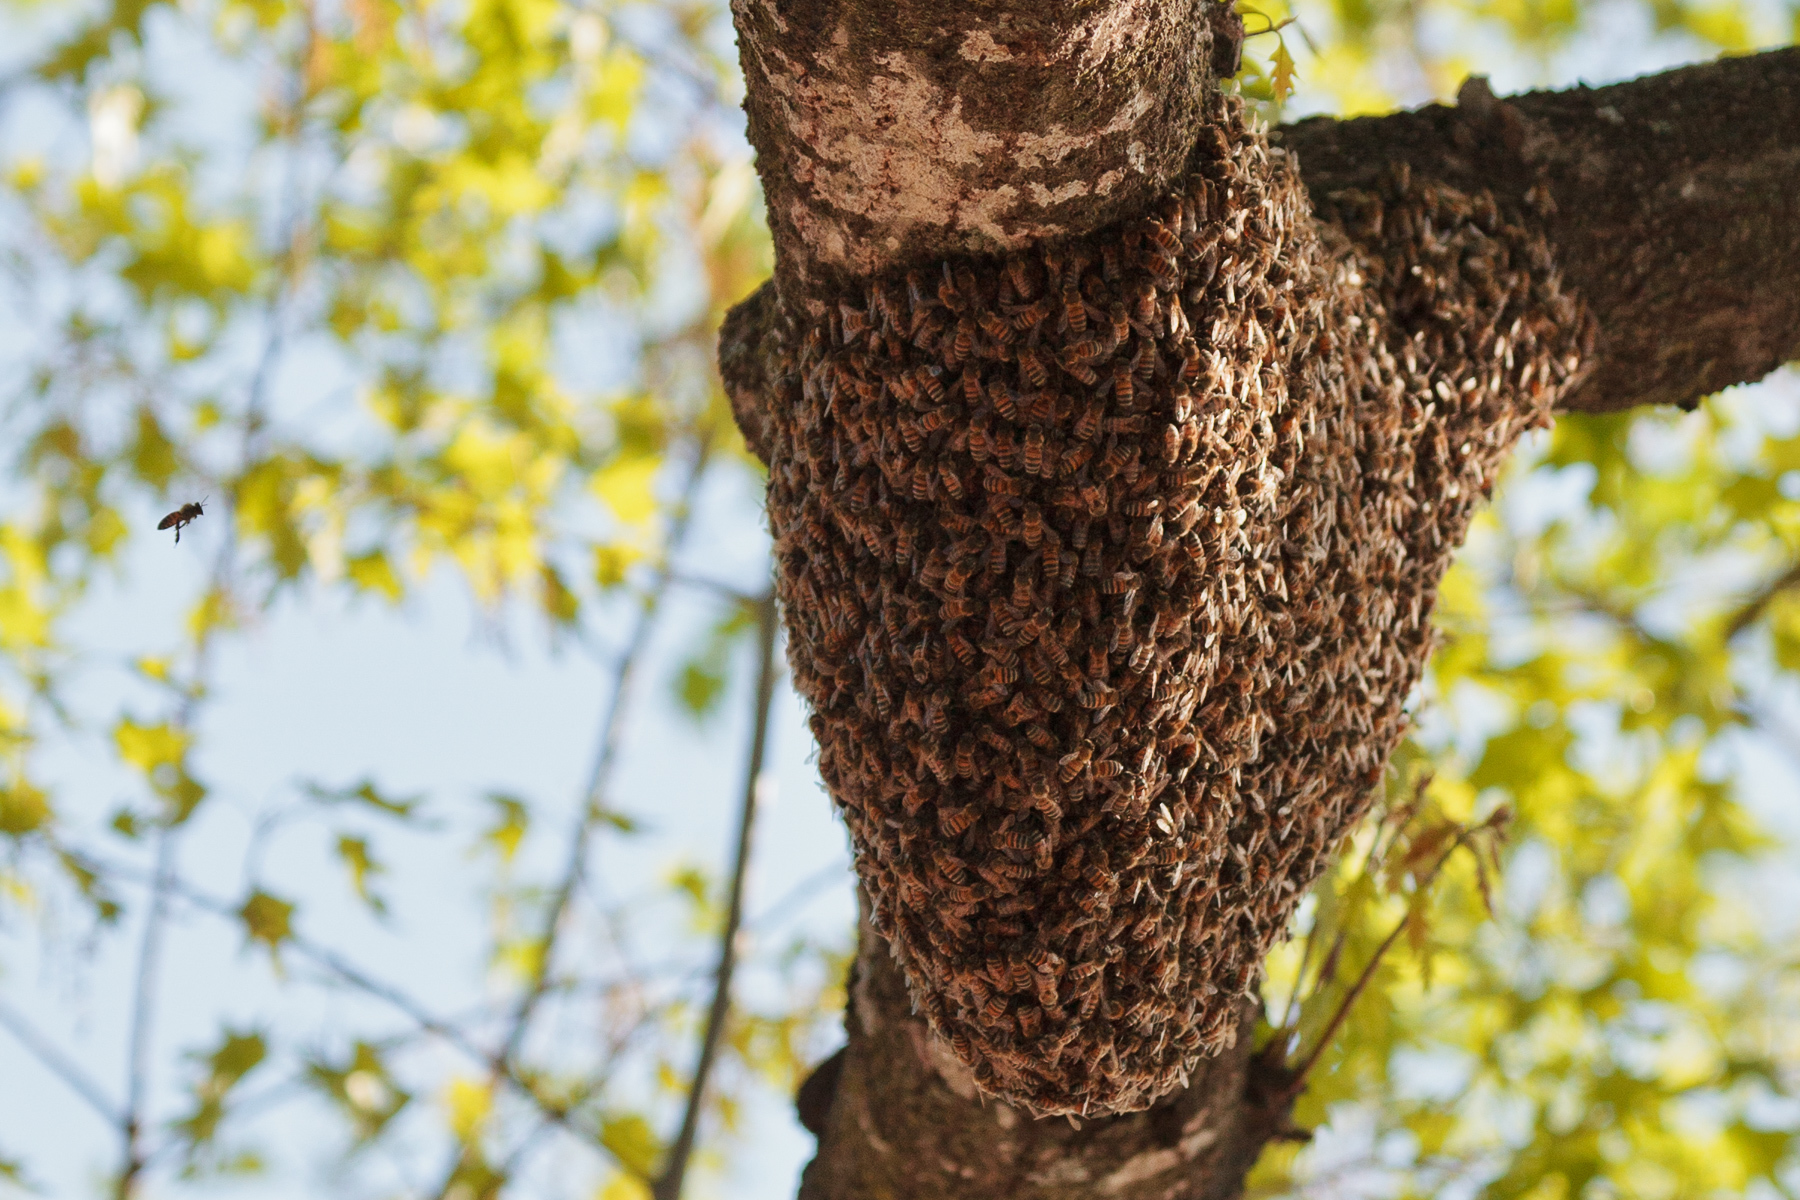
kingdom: Animalia
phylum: Arthropoda
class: Insecta
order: Hymenoptera
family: Apidae
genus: Apis
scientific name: Apis mellifera
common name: Honey bee
